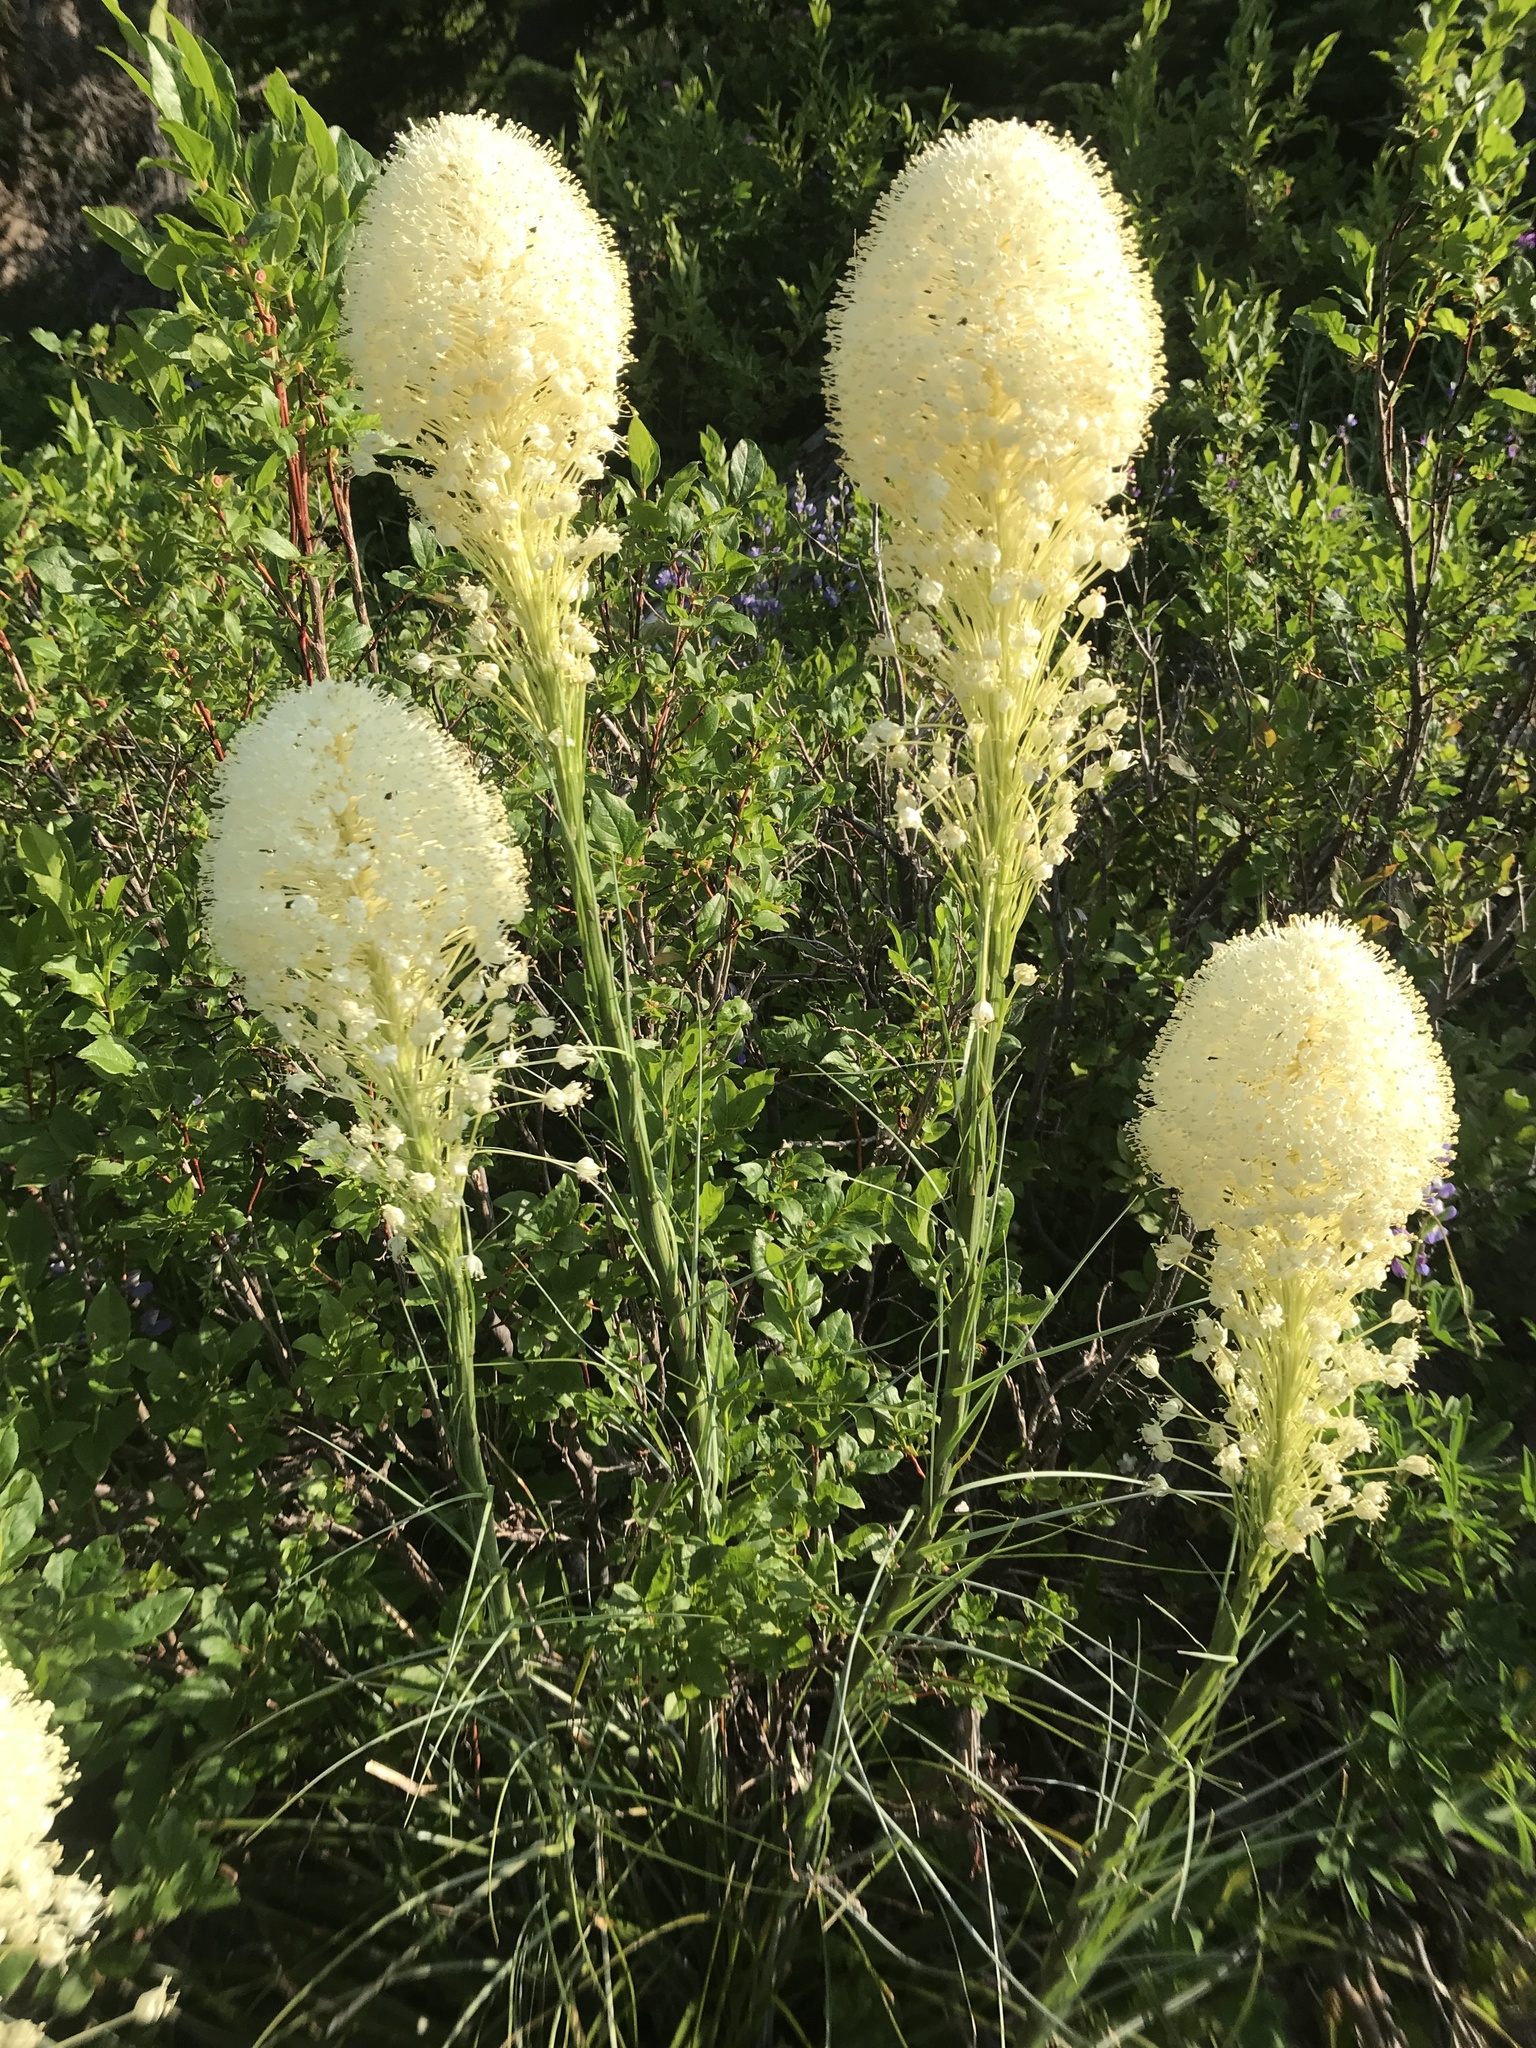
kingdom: Plantae
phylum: Tracheophyta
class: Liliopsida
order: Liliales
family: Melanthiaceae
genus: Xerophyllum
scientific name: Xerophyllum tenax
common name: Bear-grass
